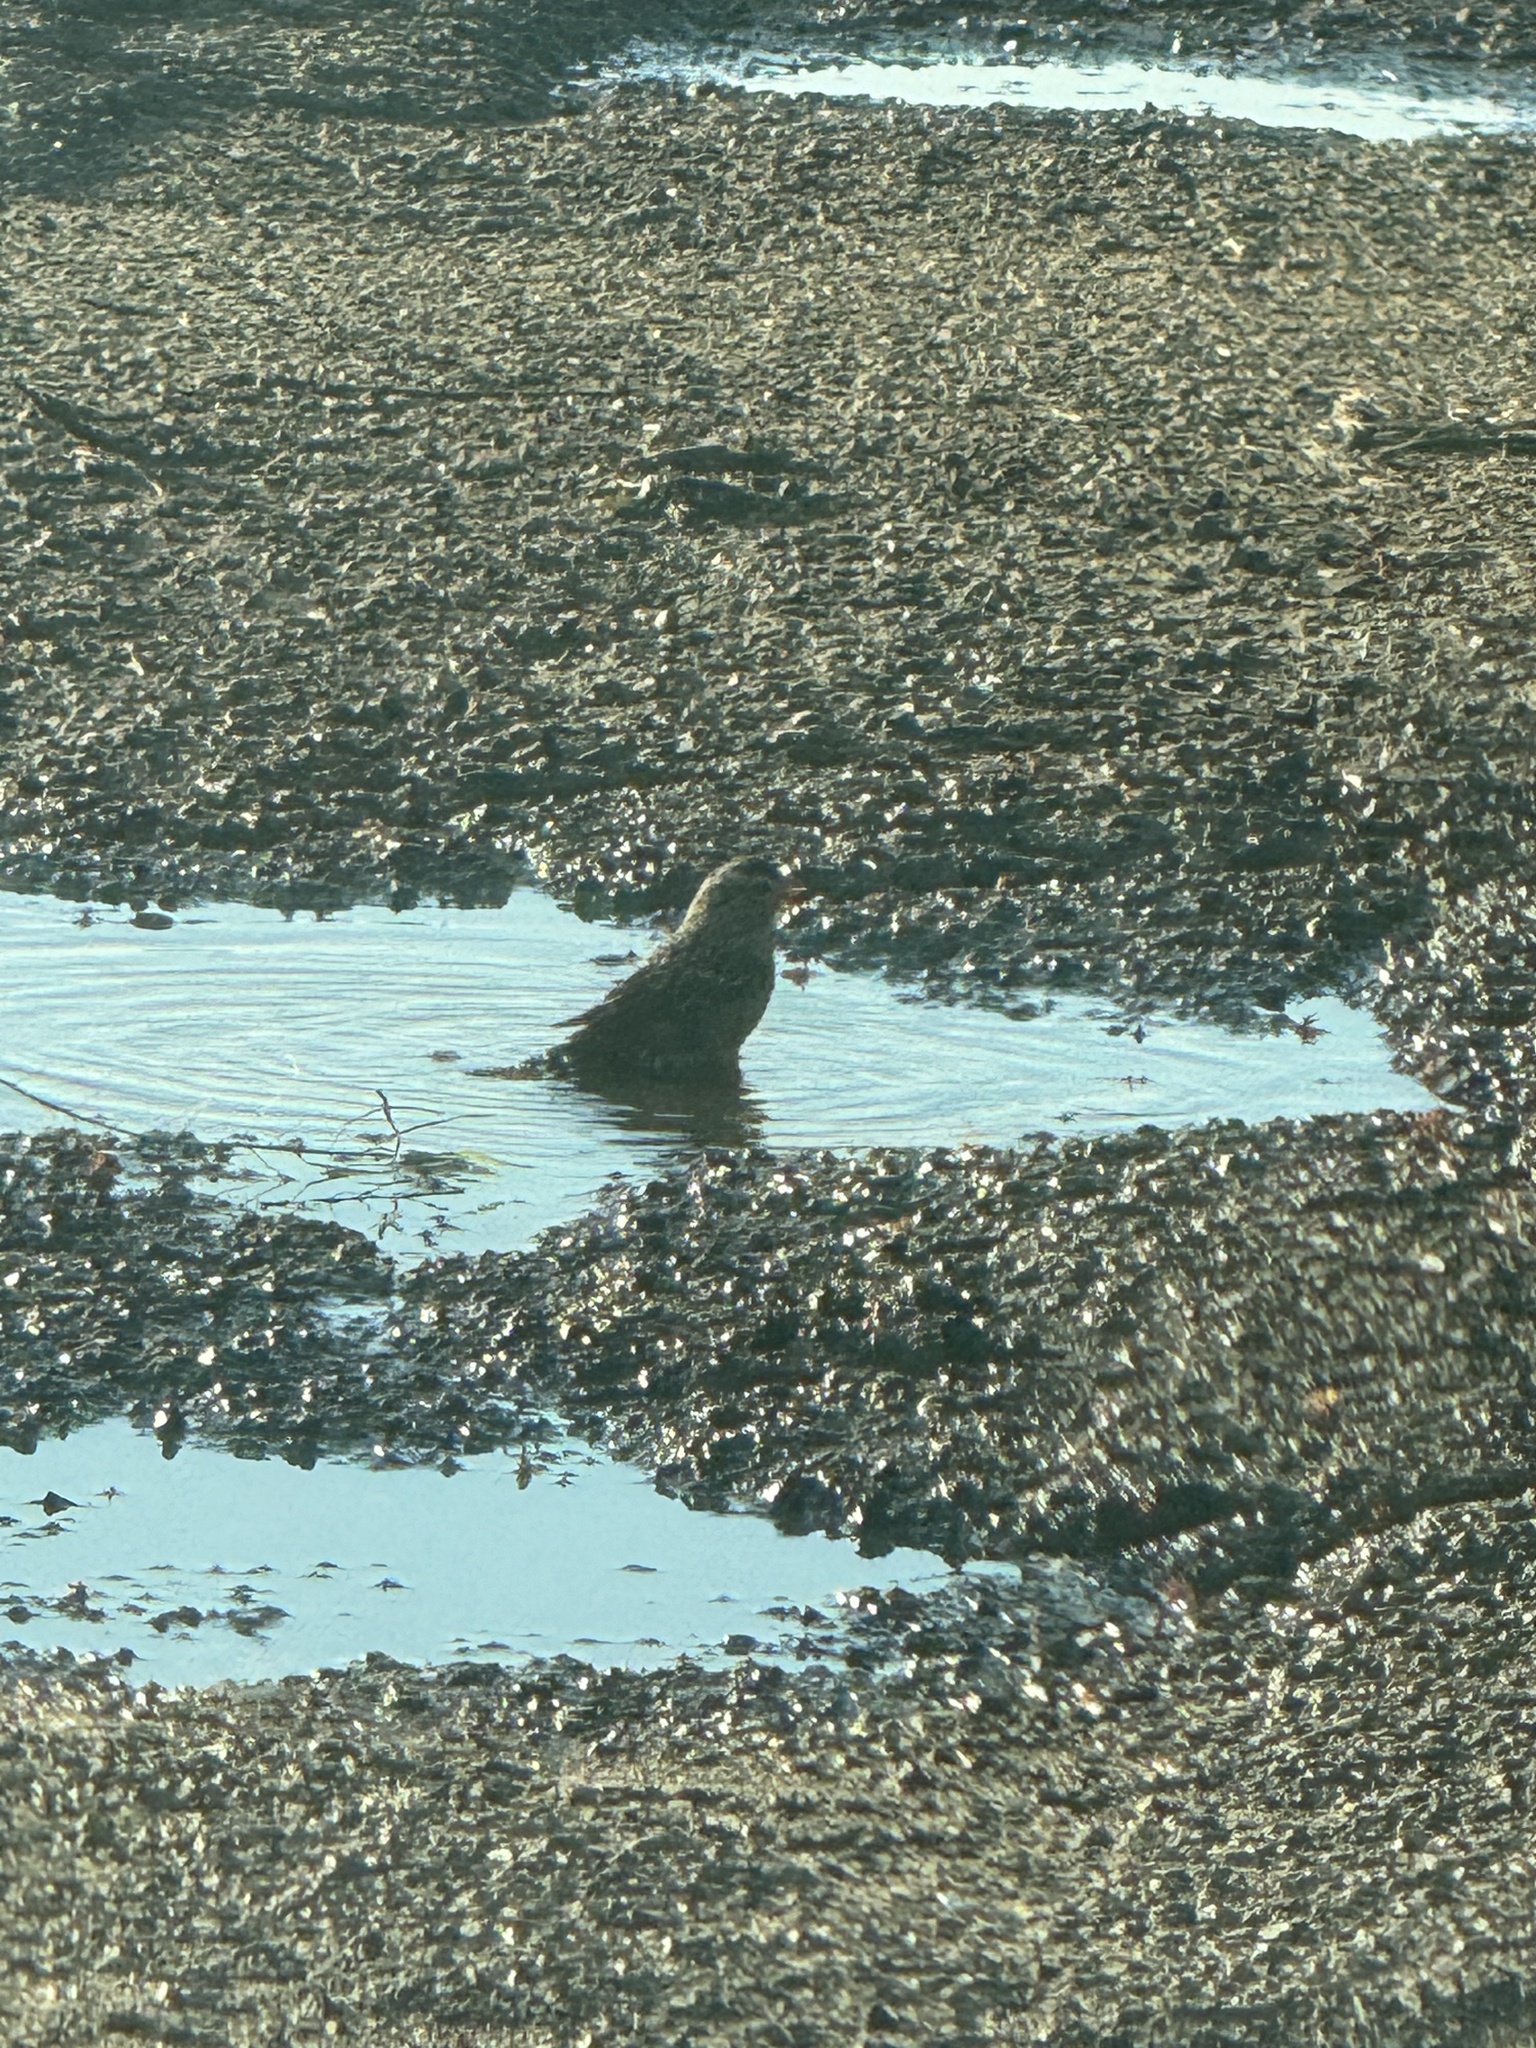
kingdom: Animalia
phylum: Chordata
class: Aves
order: Passeriformes
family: Passerellidae
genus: Zonotrichia
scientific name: Zonotrichia leucophrys
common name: White-crowned sparrow
